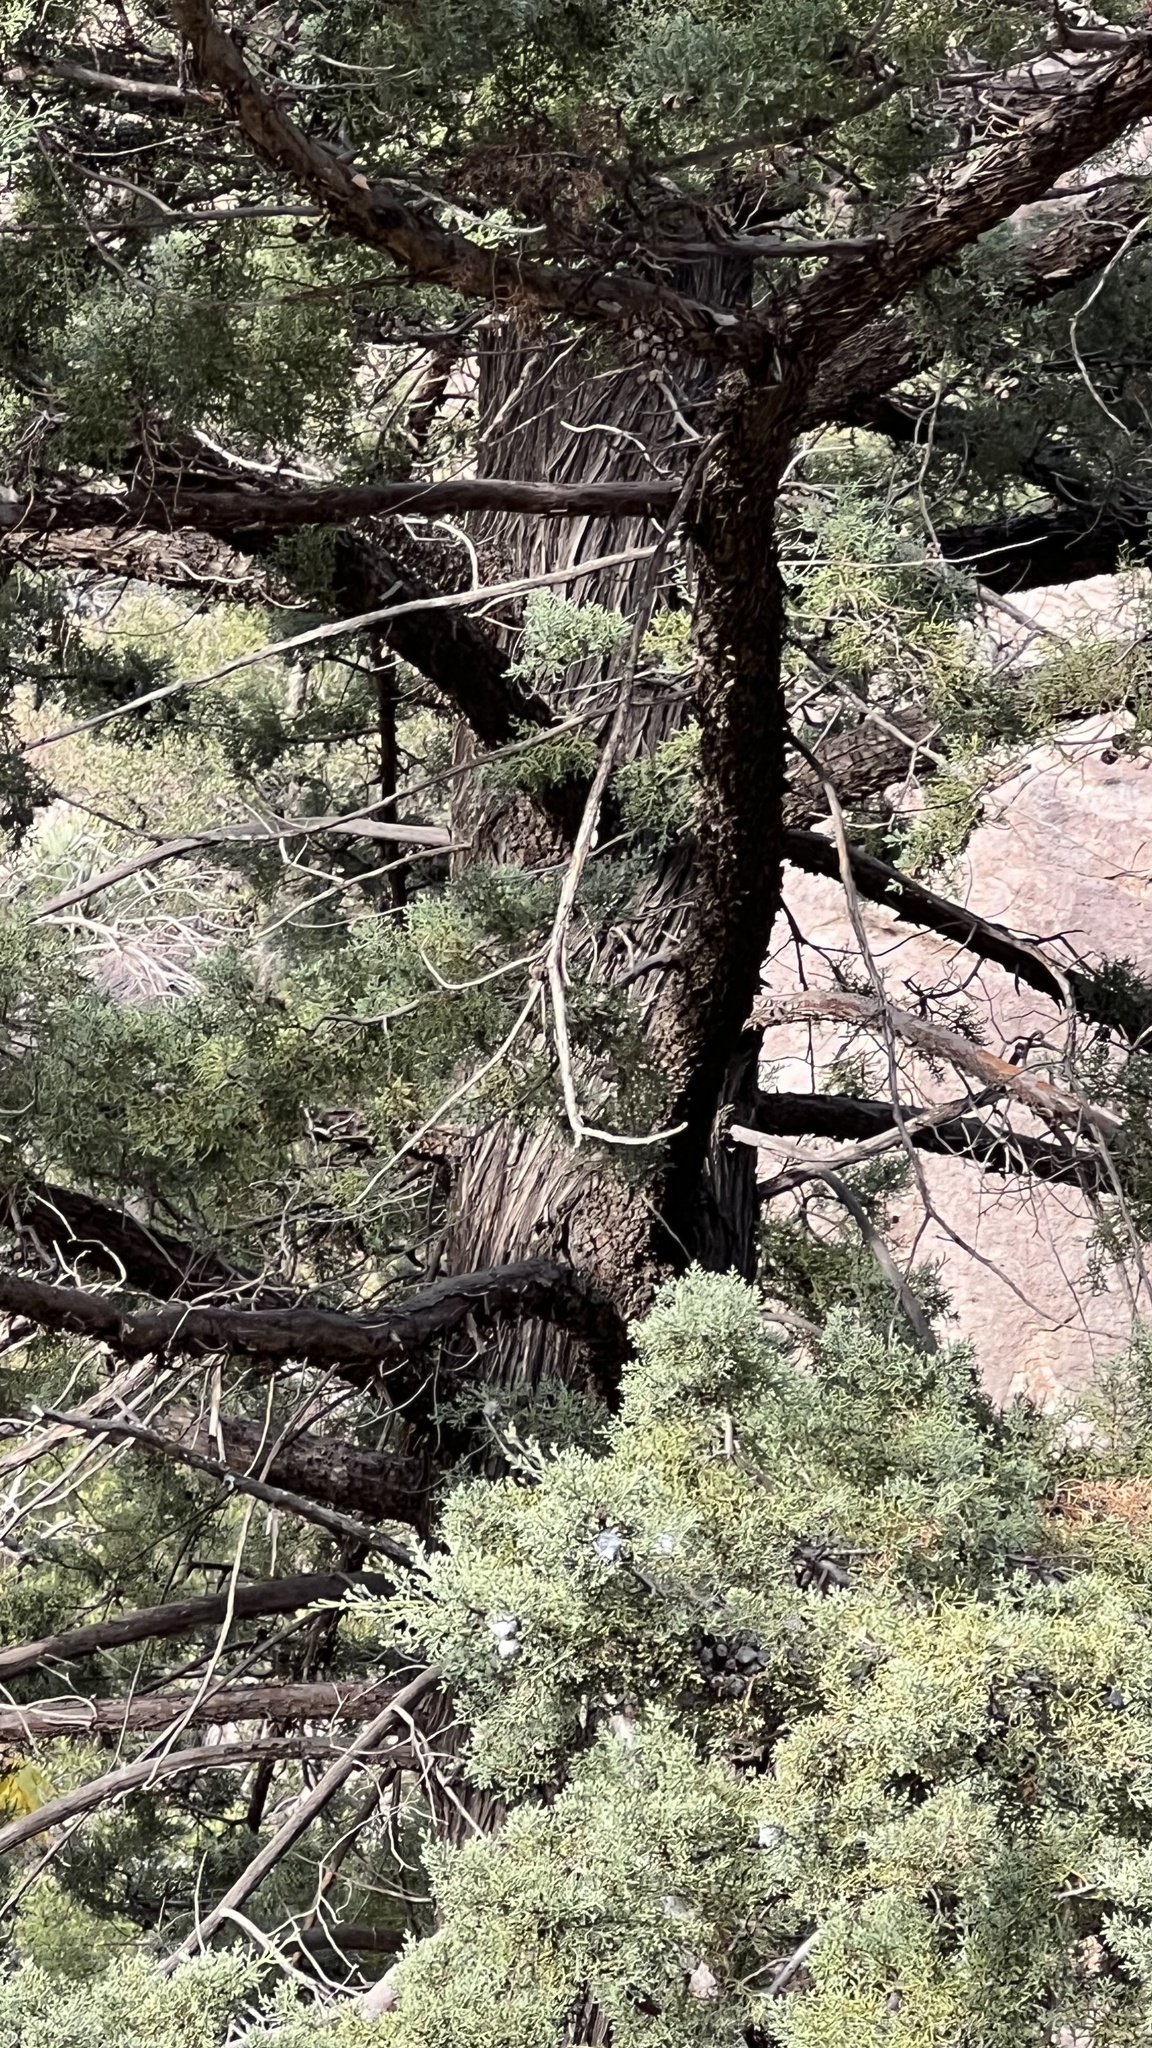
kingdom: Plantae
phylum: Tracheophyta
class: Pinopsida
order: Pinales
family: Cupressaceae
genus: Cupressus
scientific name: Cupressus arizonica
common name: Arizona cypress
